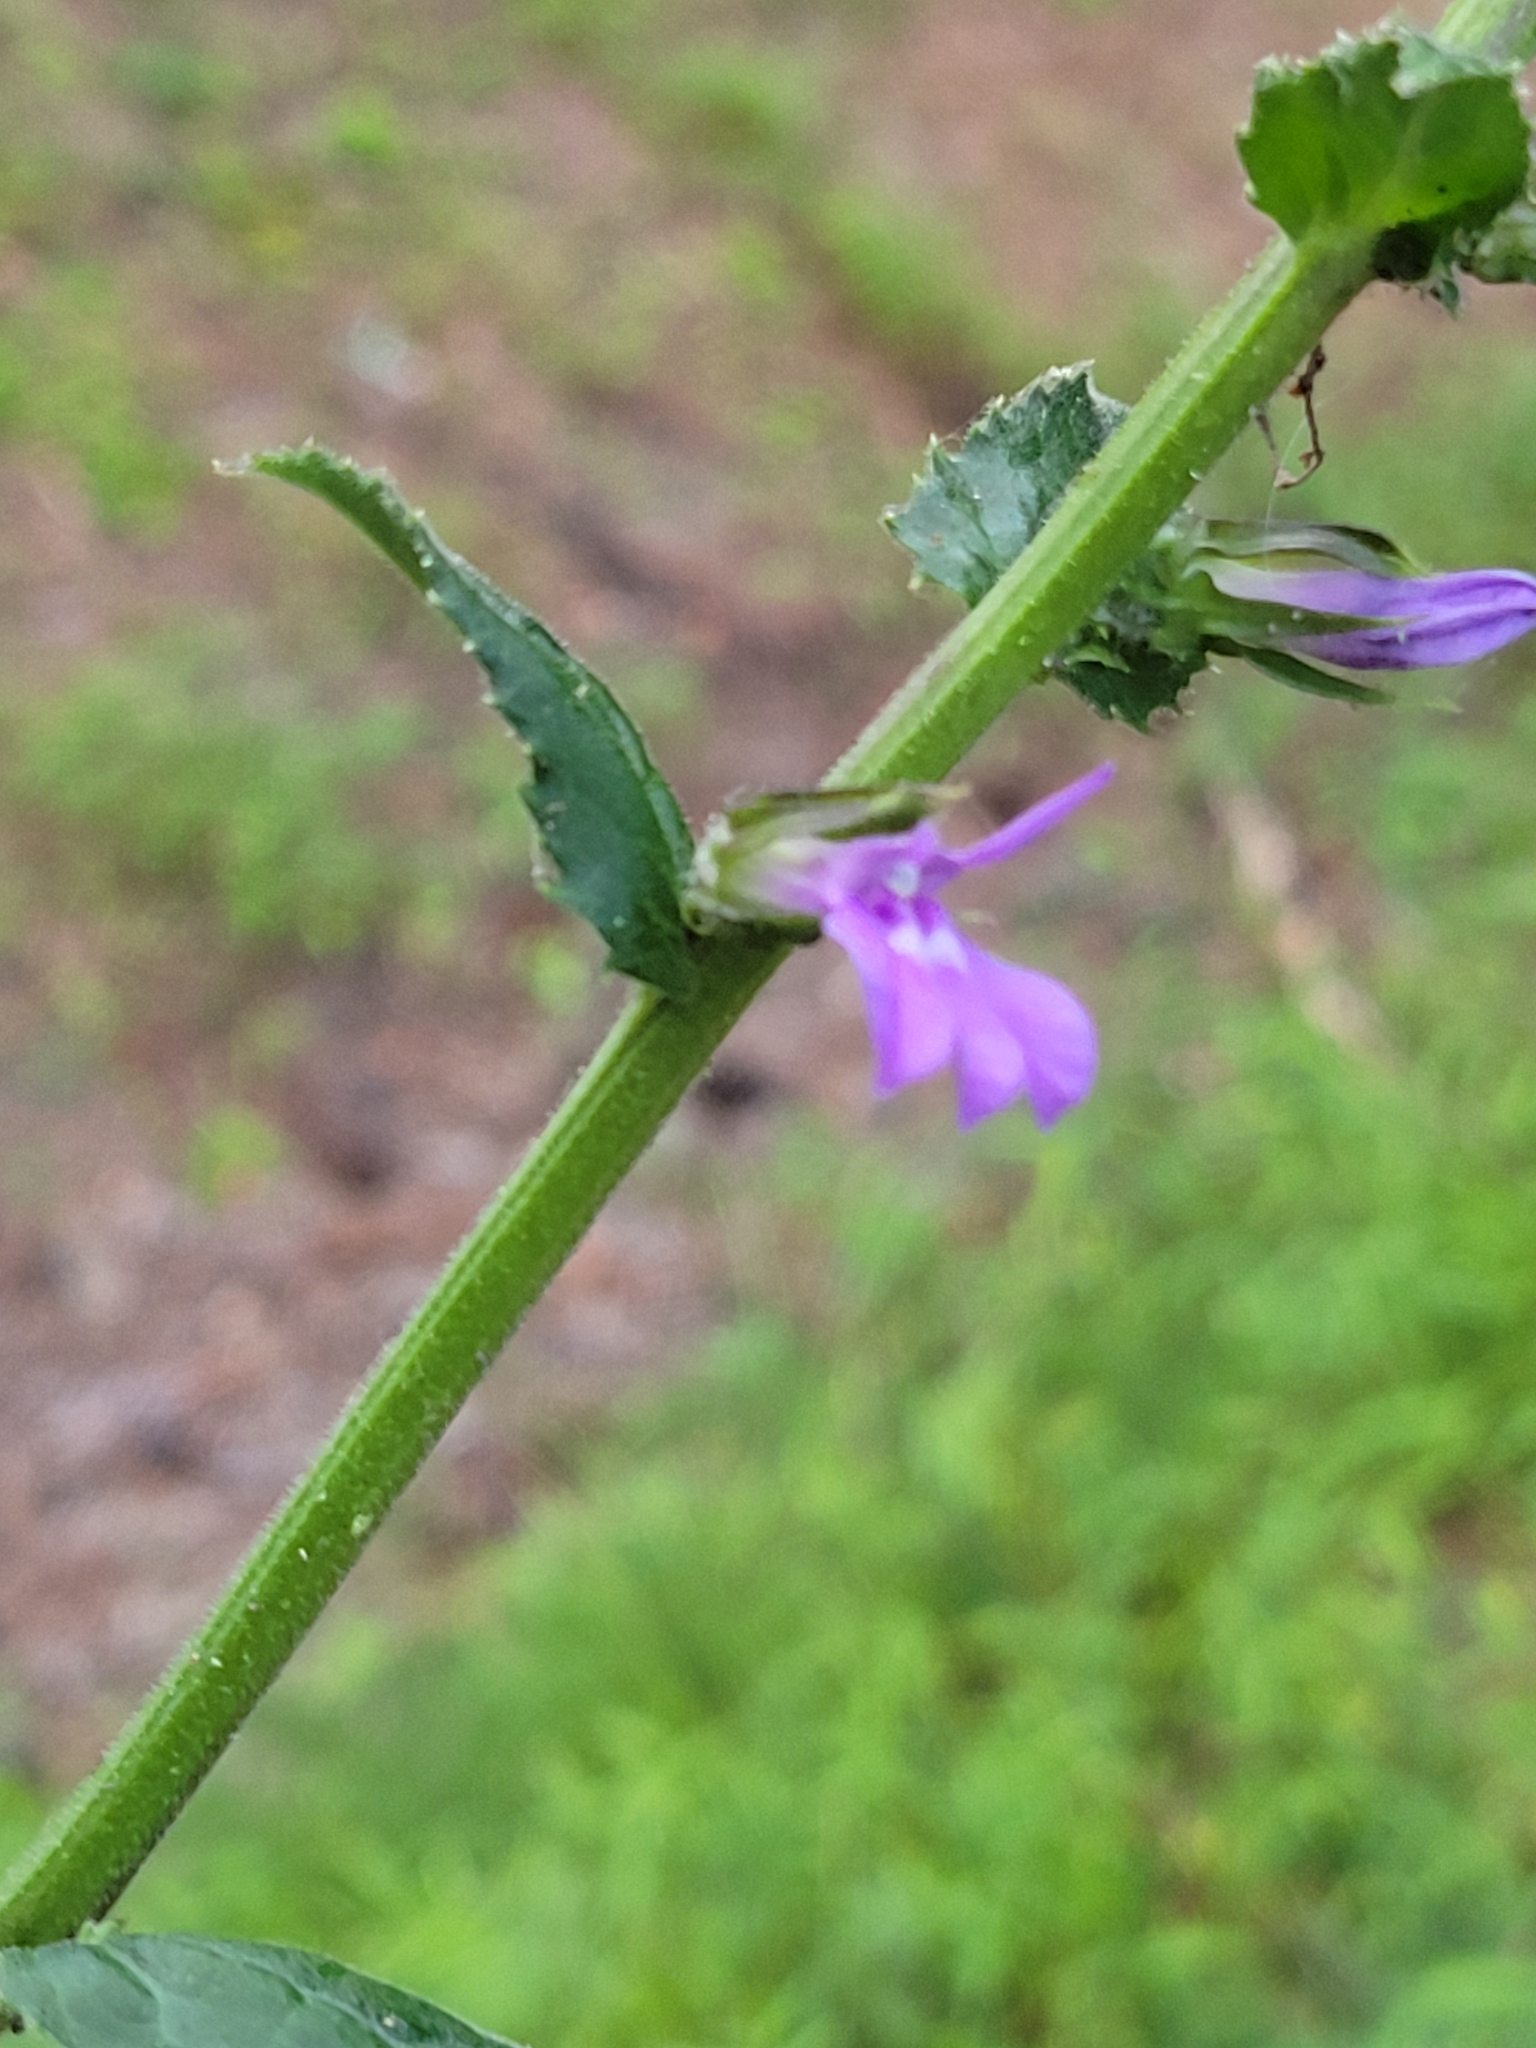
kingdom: Plantae
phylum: Tracheophyta
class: Magnoliopsida
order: Asterales
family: Campanulaceae
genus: Lobelia
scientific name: Lobelia puberula
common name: Purple dewdrop
